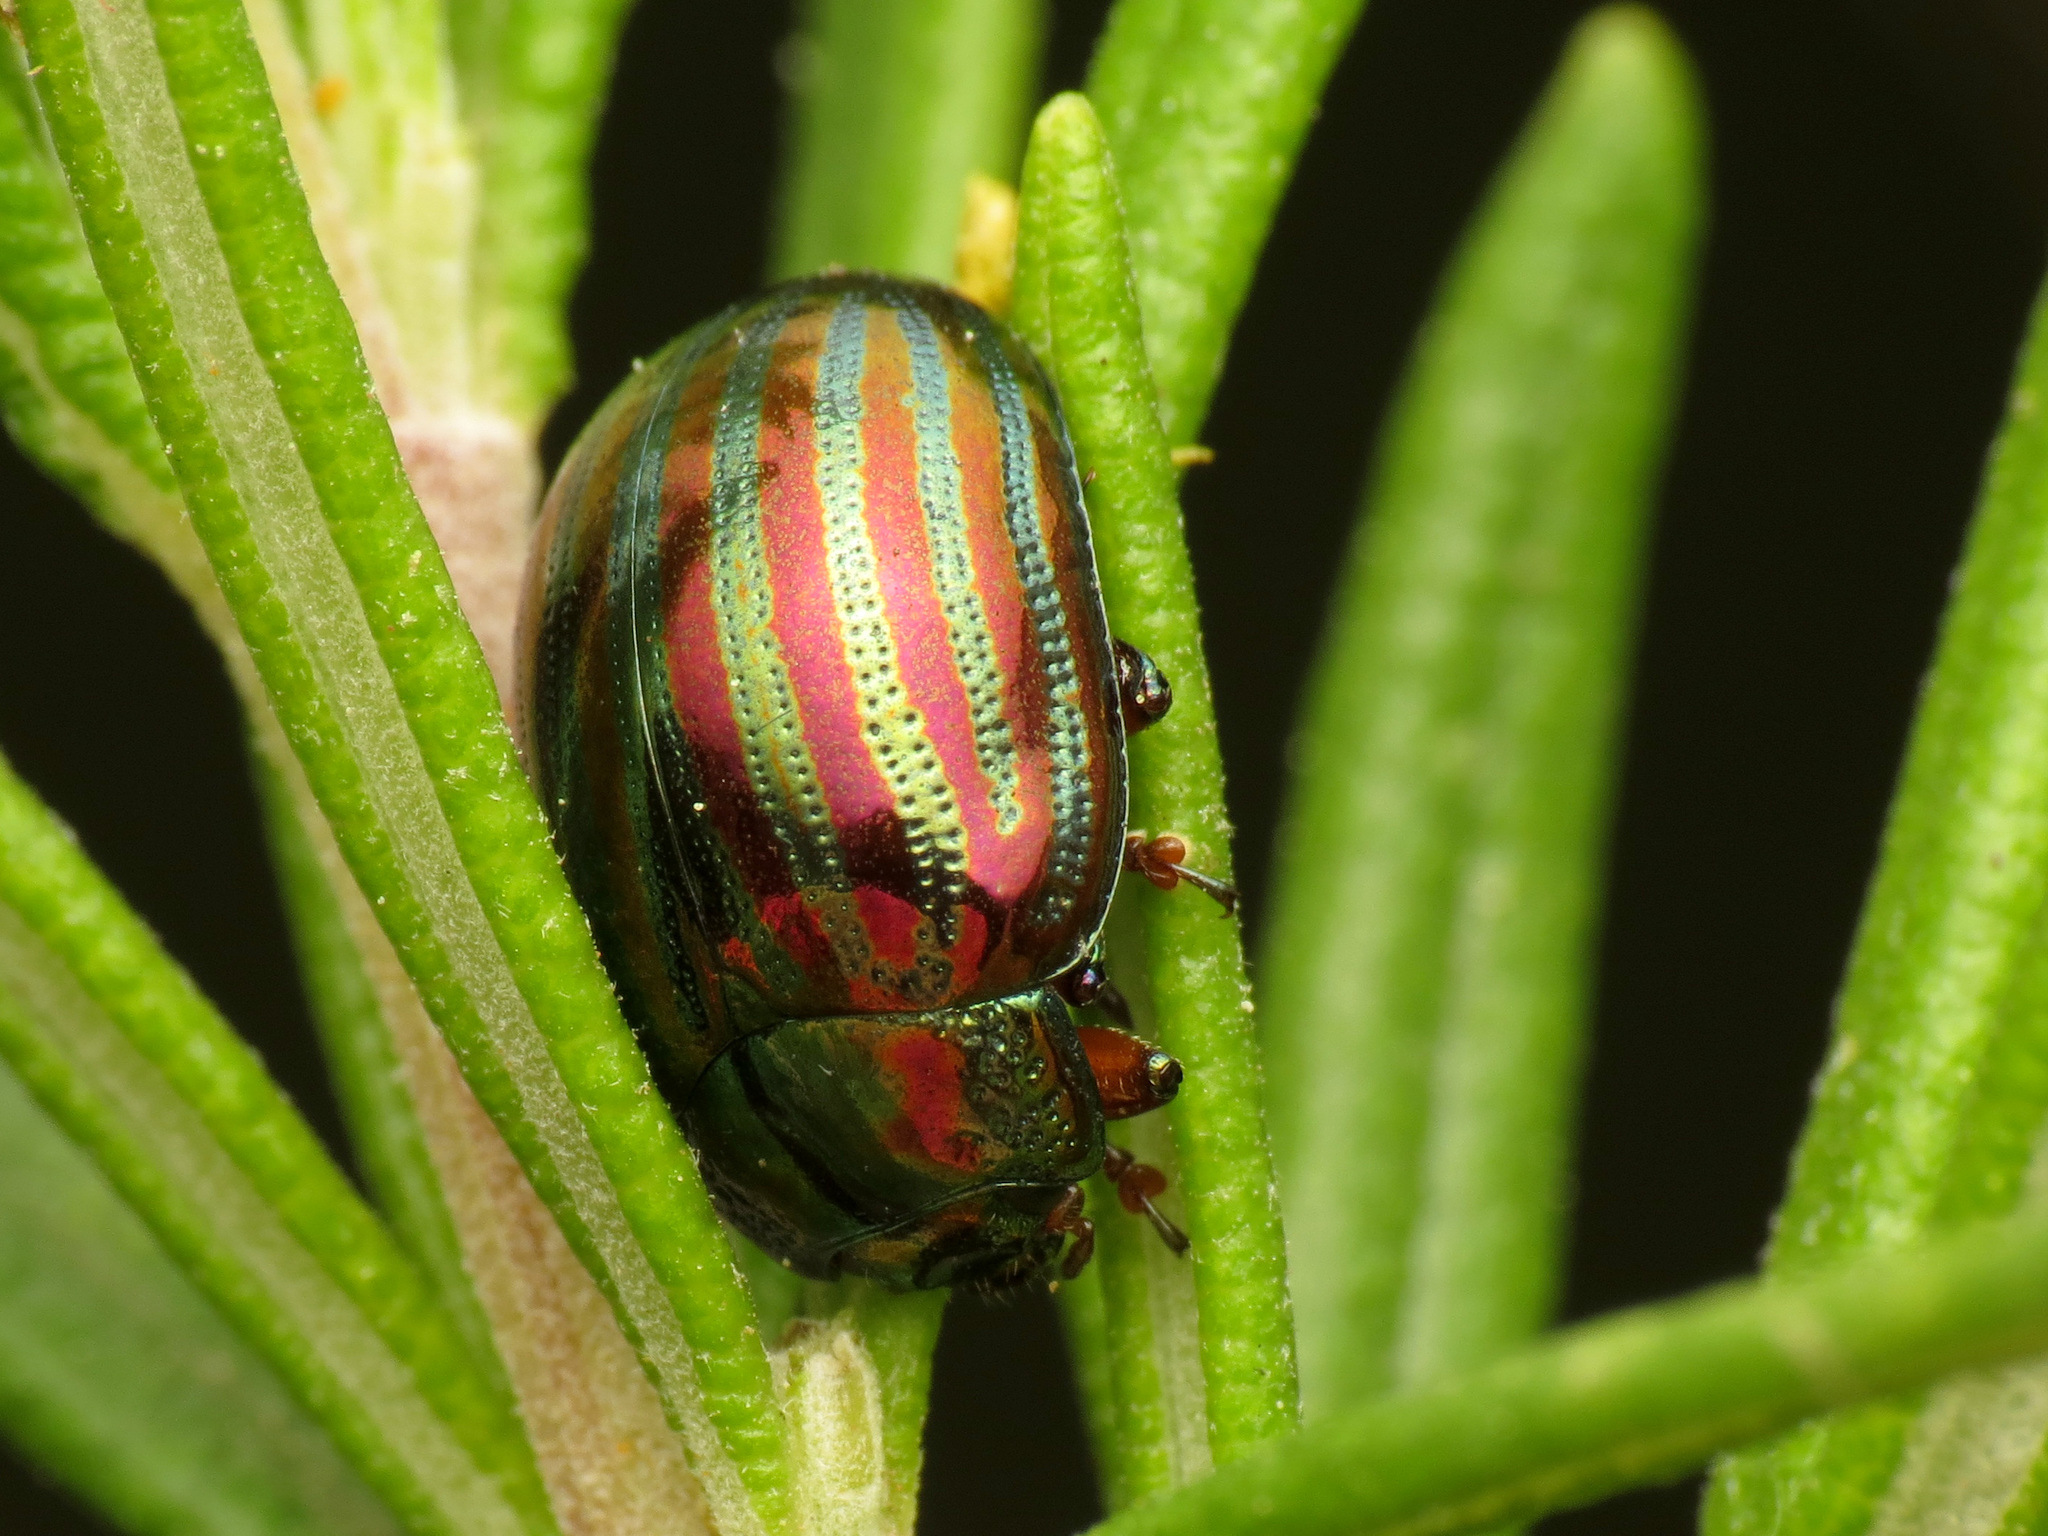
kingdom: Animalia
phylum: Arthropoda
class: Insecta
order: Coleoptera
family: Chrysomelidae
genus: Chrysolina
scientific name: Chrysolina americana
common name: Rosemary beetle
